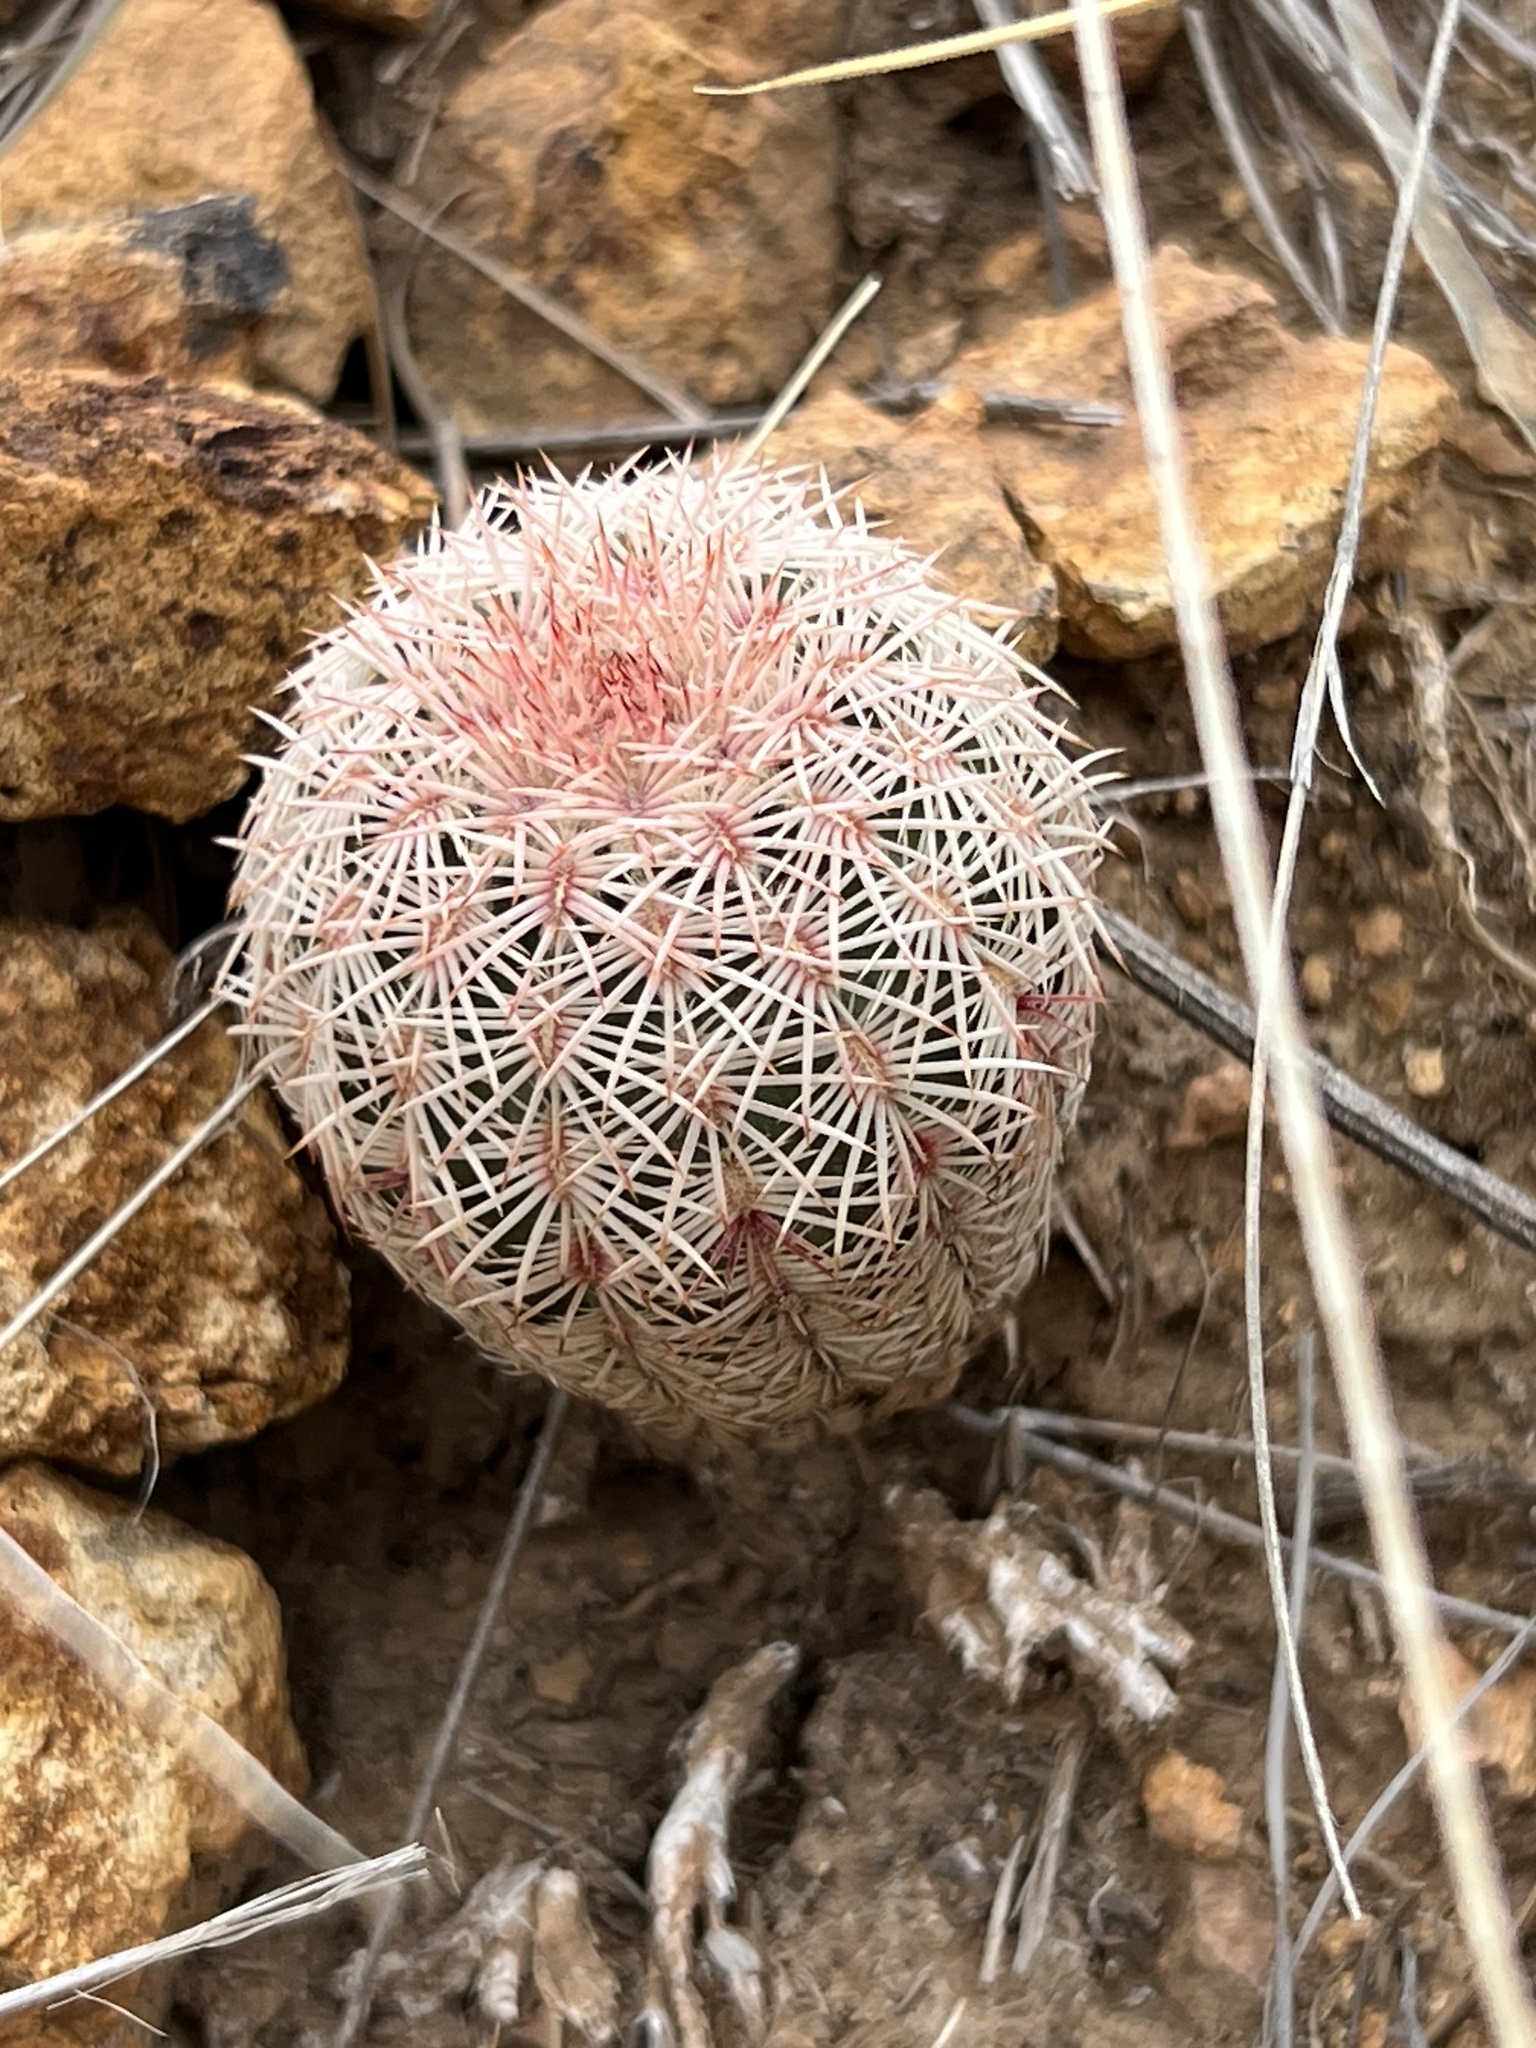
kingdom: Plantae
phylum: Tracheophyta
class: Magnoliopsida
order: Caryophyllales
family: Cactaceae
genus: Echinocereus
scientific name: Echinocereus rigidissimus
